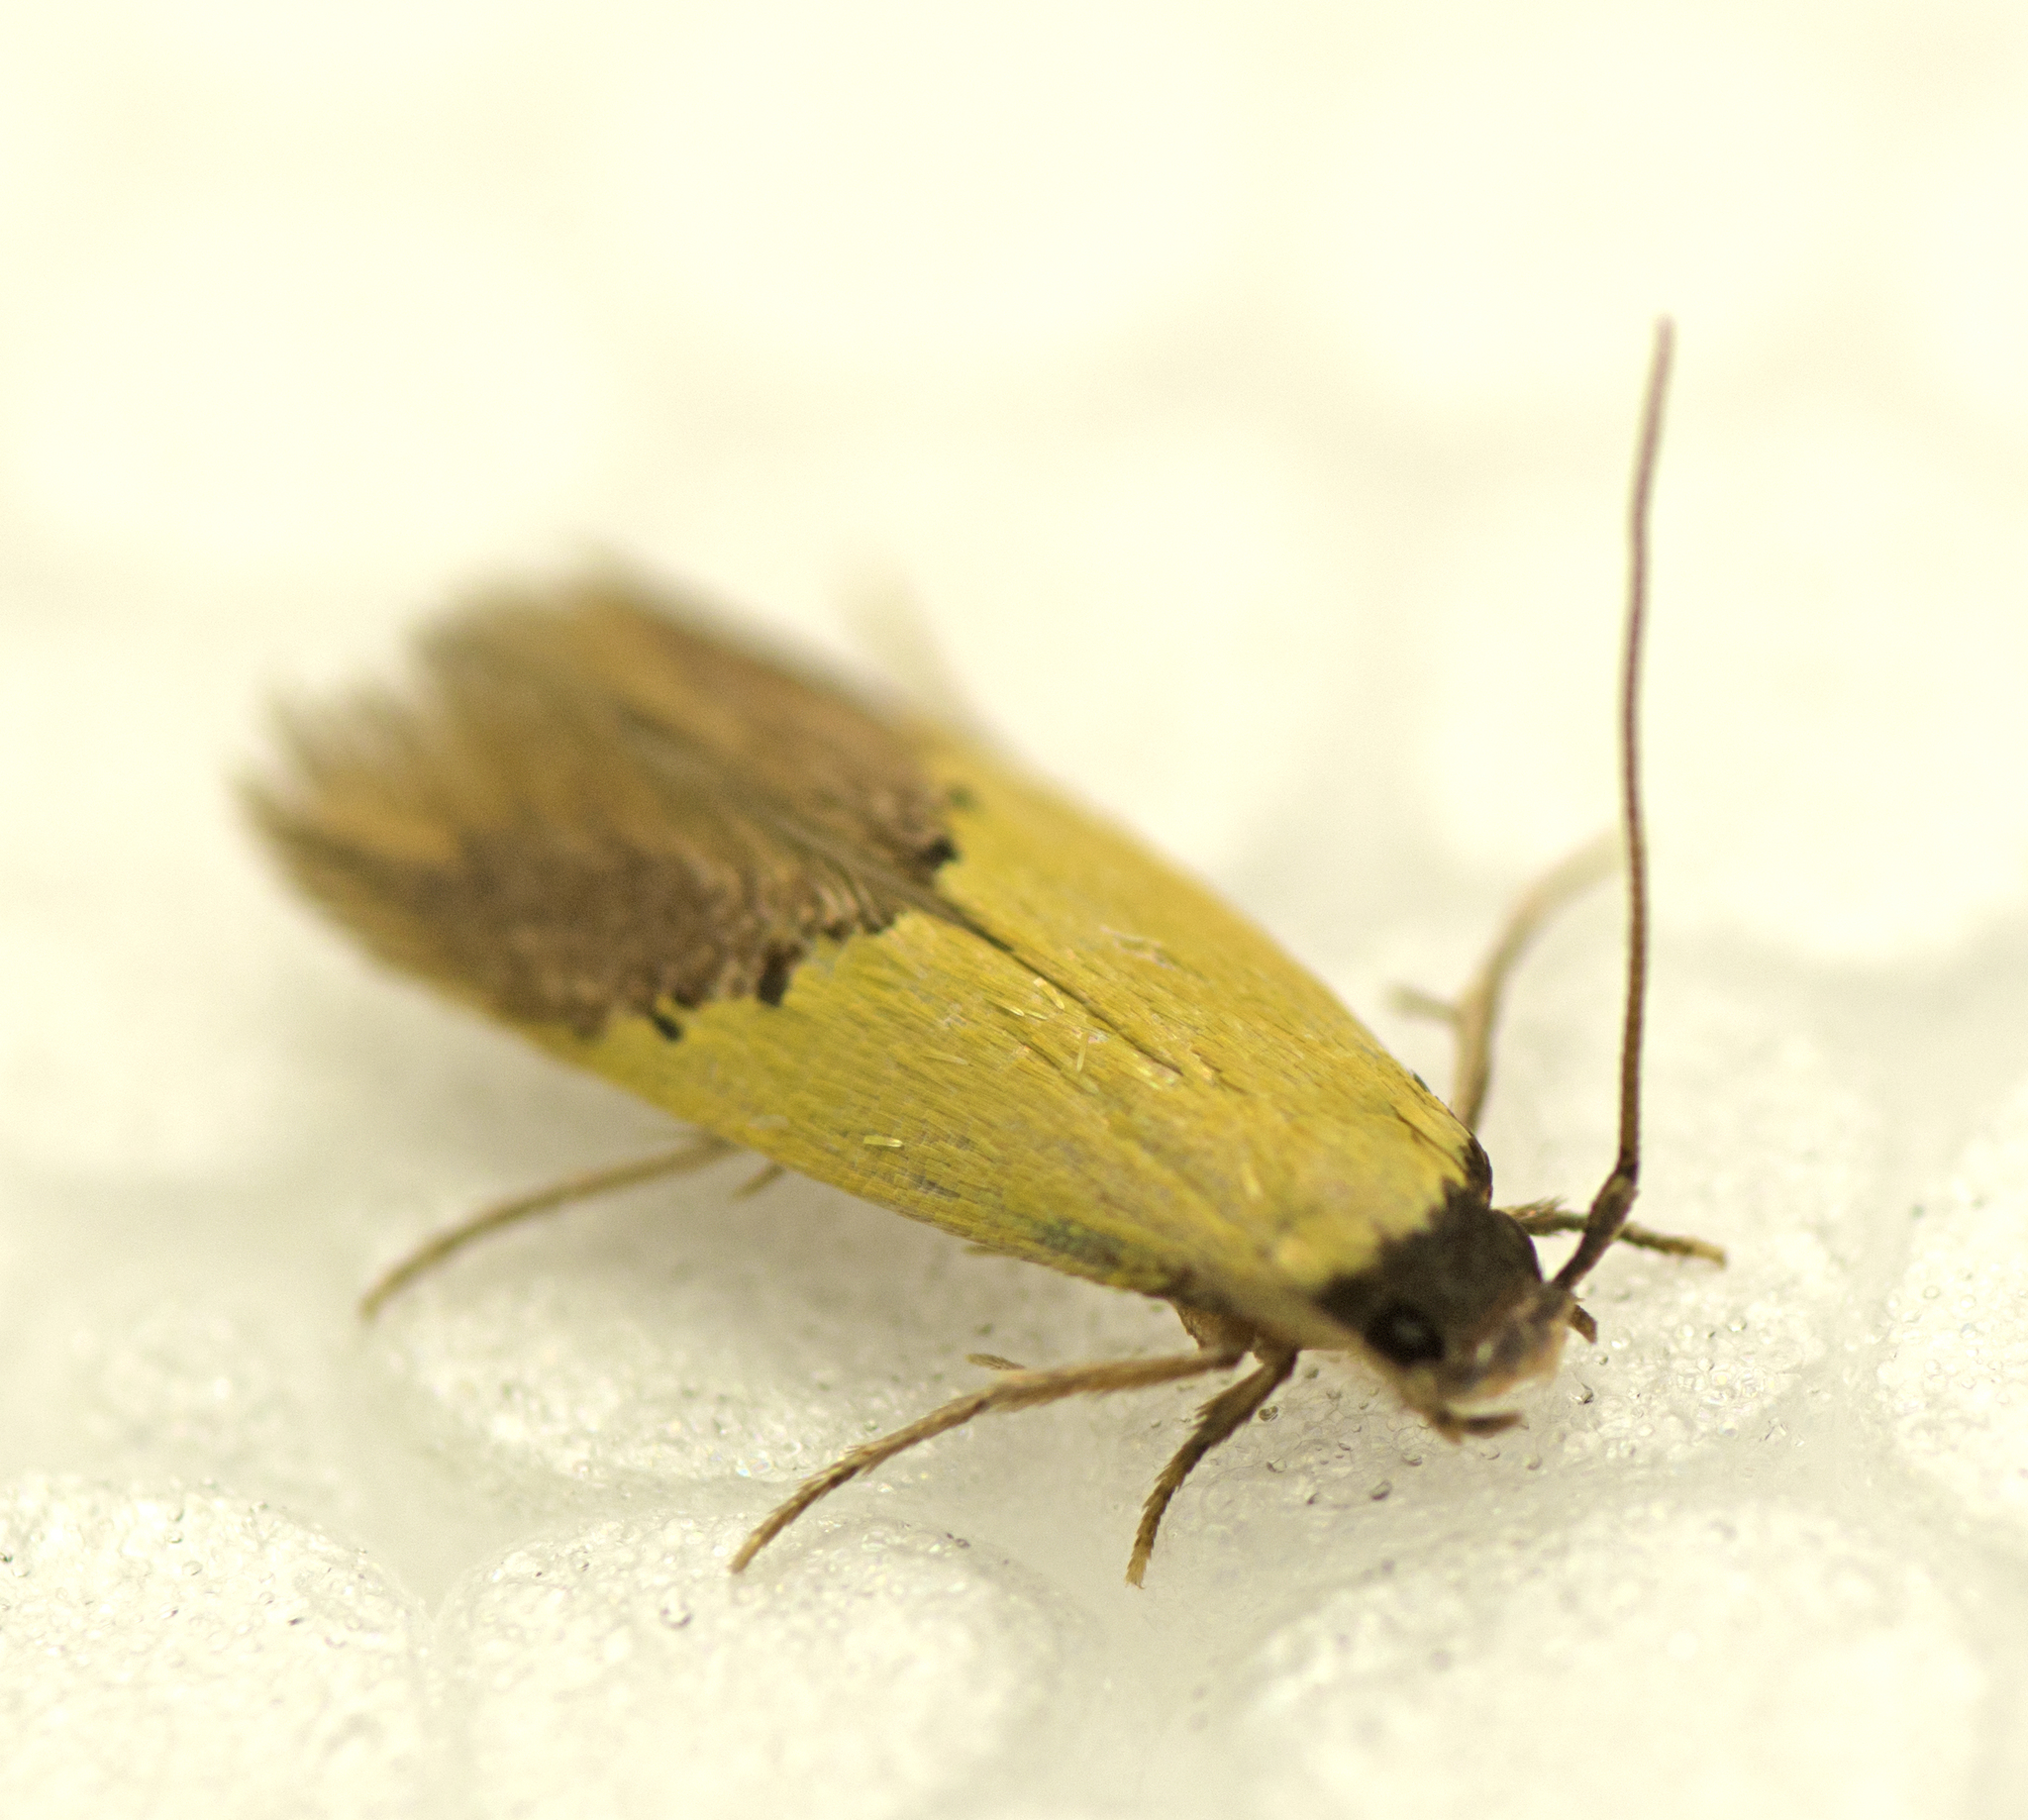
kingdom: Animalia
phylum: Arthropoda
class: Insecta
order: Lepidoptera
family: Tineidae
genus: Opogona
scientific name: Opogona protodoxa
